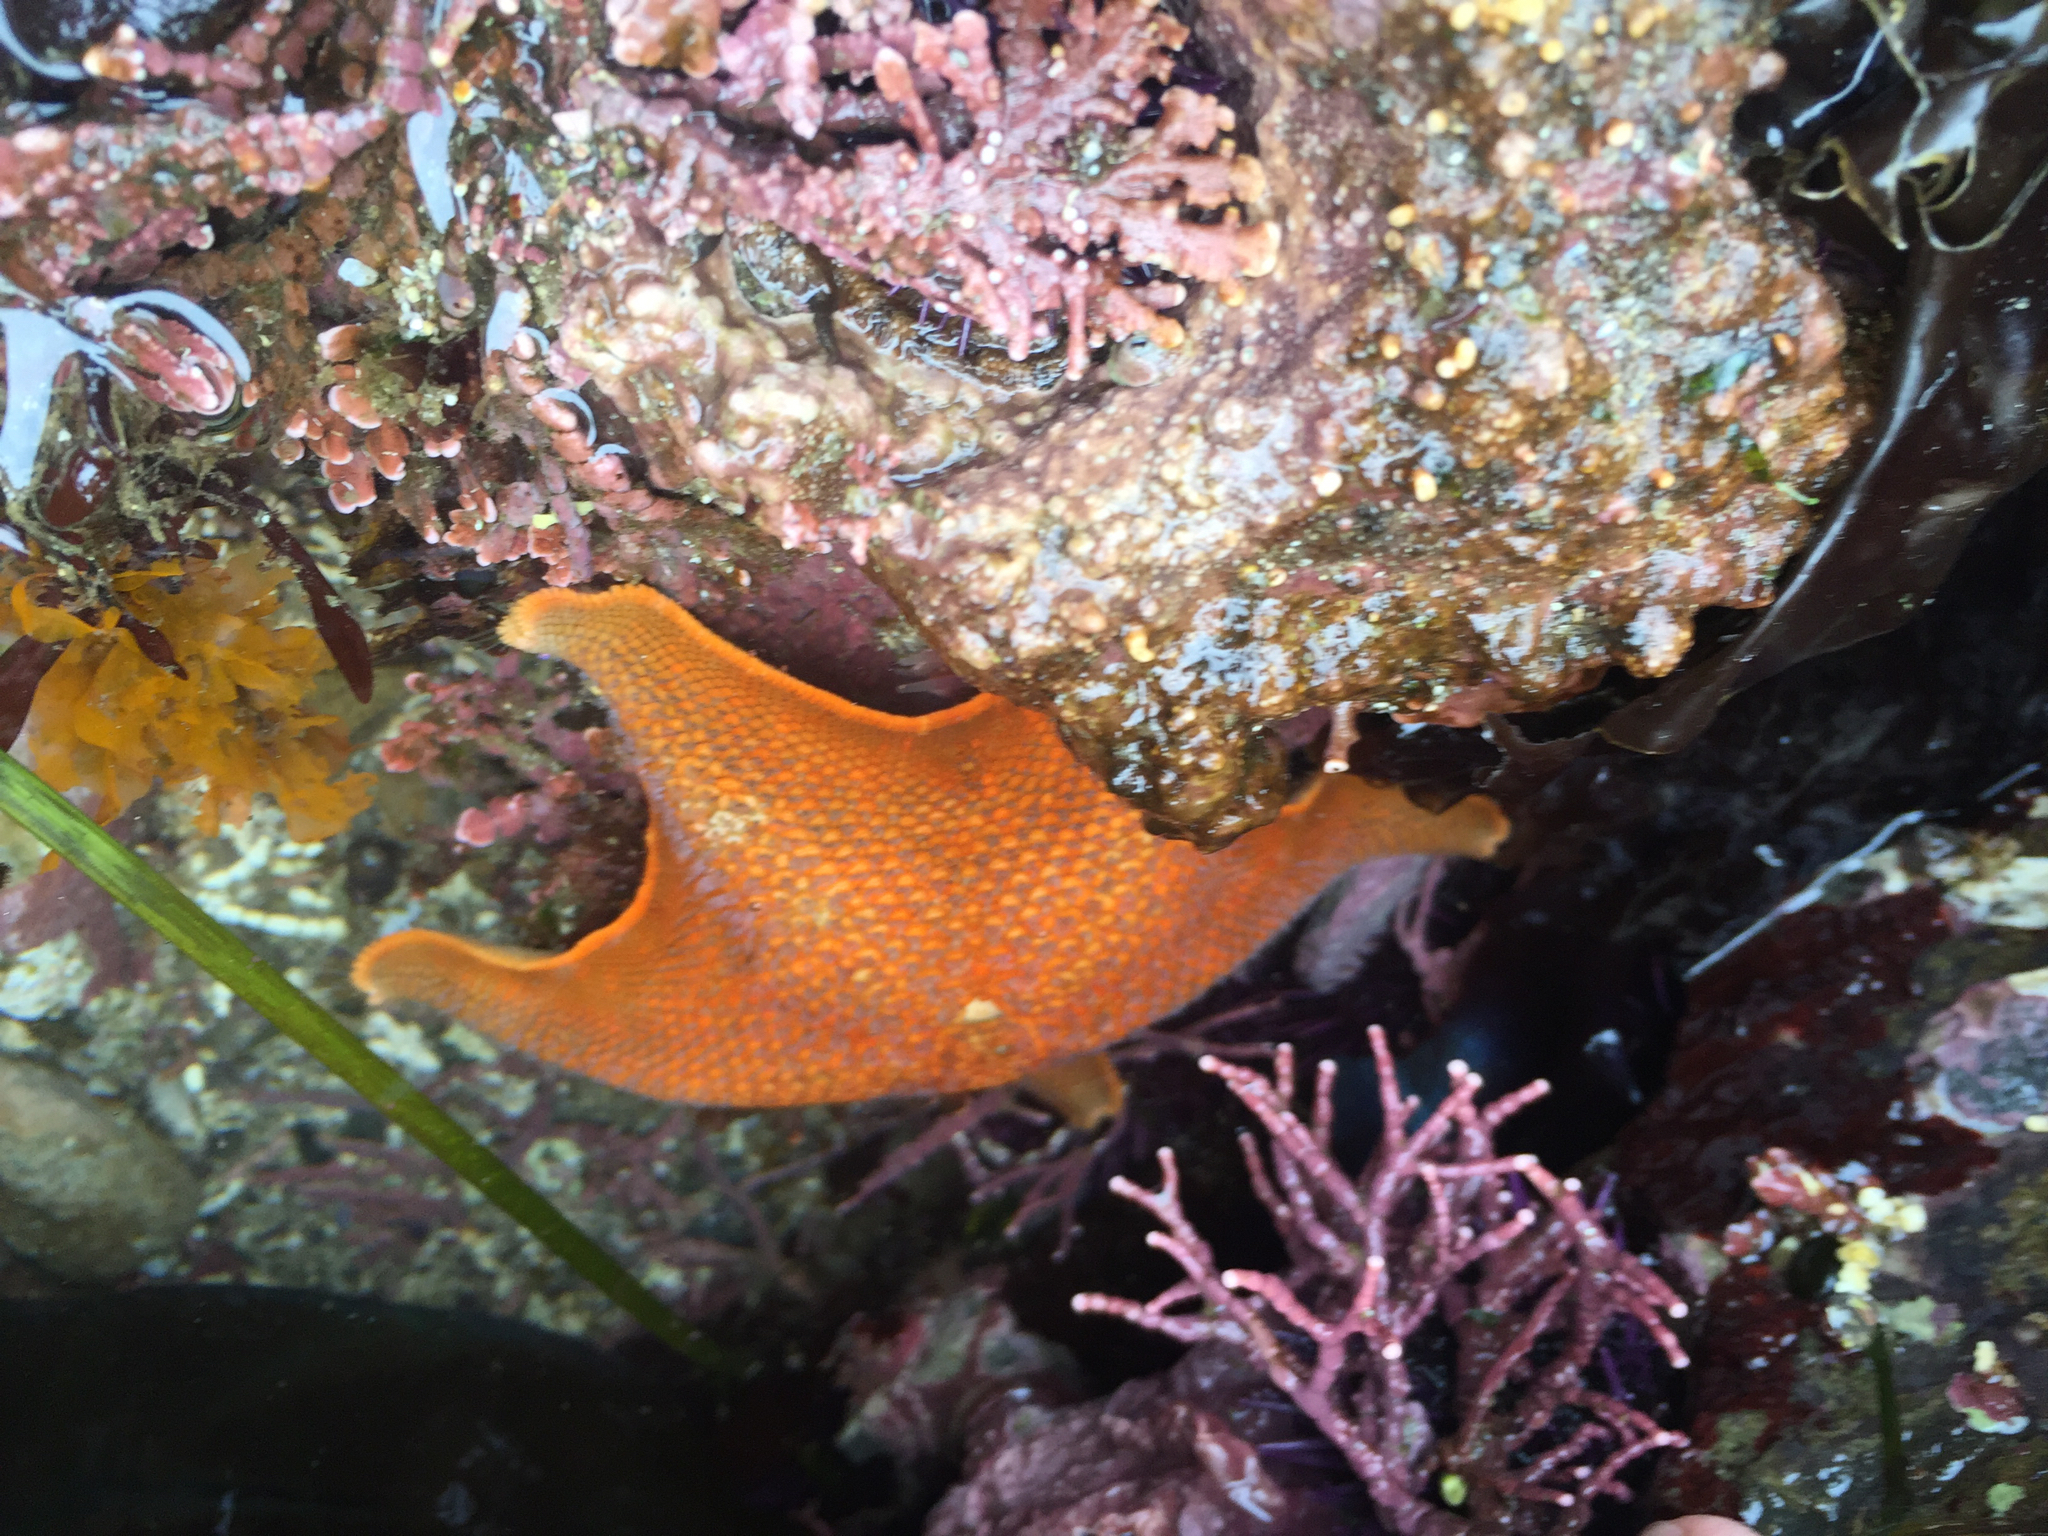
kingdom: Animalia
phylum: Echinodermata
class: Asteroidea
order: Valvatida
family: Asterinidae
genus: Patiria
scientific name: Patiria miniata
